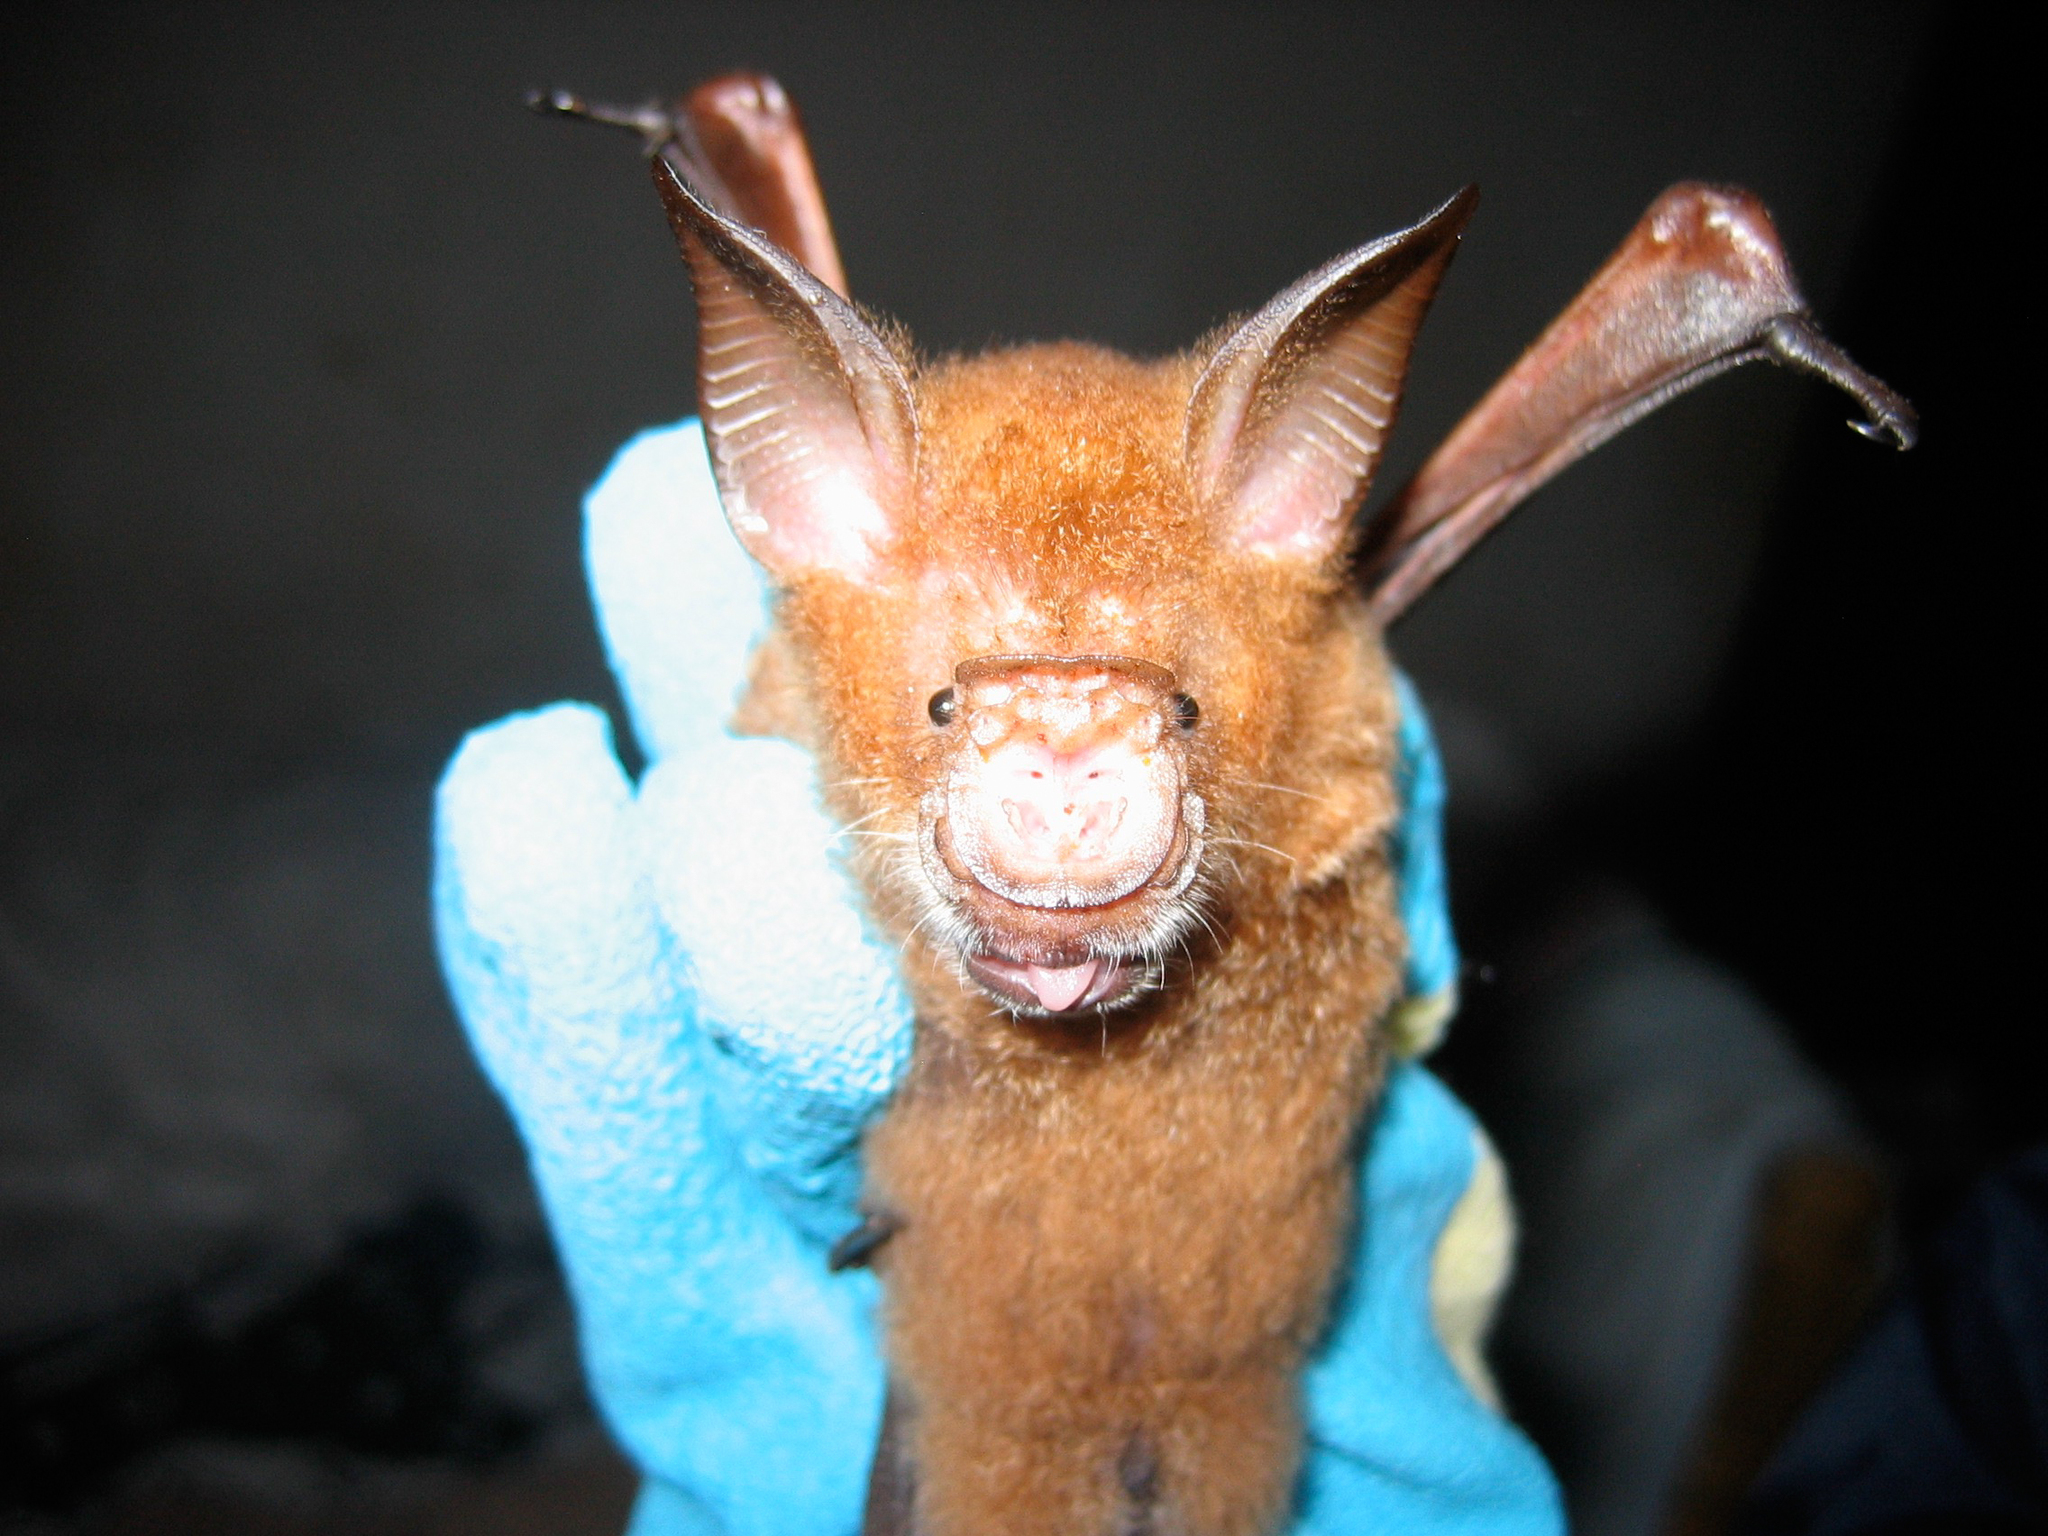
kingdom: Animalia
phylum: Chordata
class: Mammalia
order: Chiroptera
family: Hipposideridae
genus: Macronycteris
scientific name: Macronycteris commersonii
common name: Commerson's leaf-nosed bat
